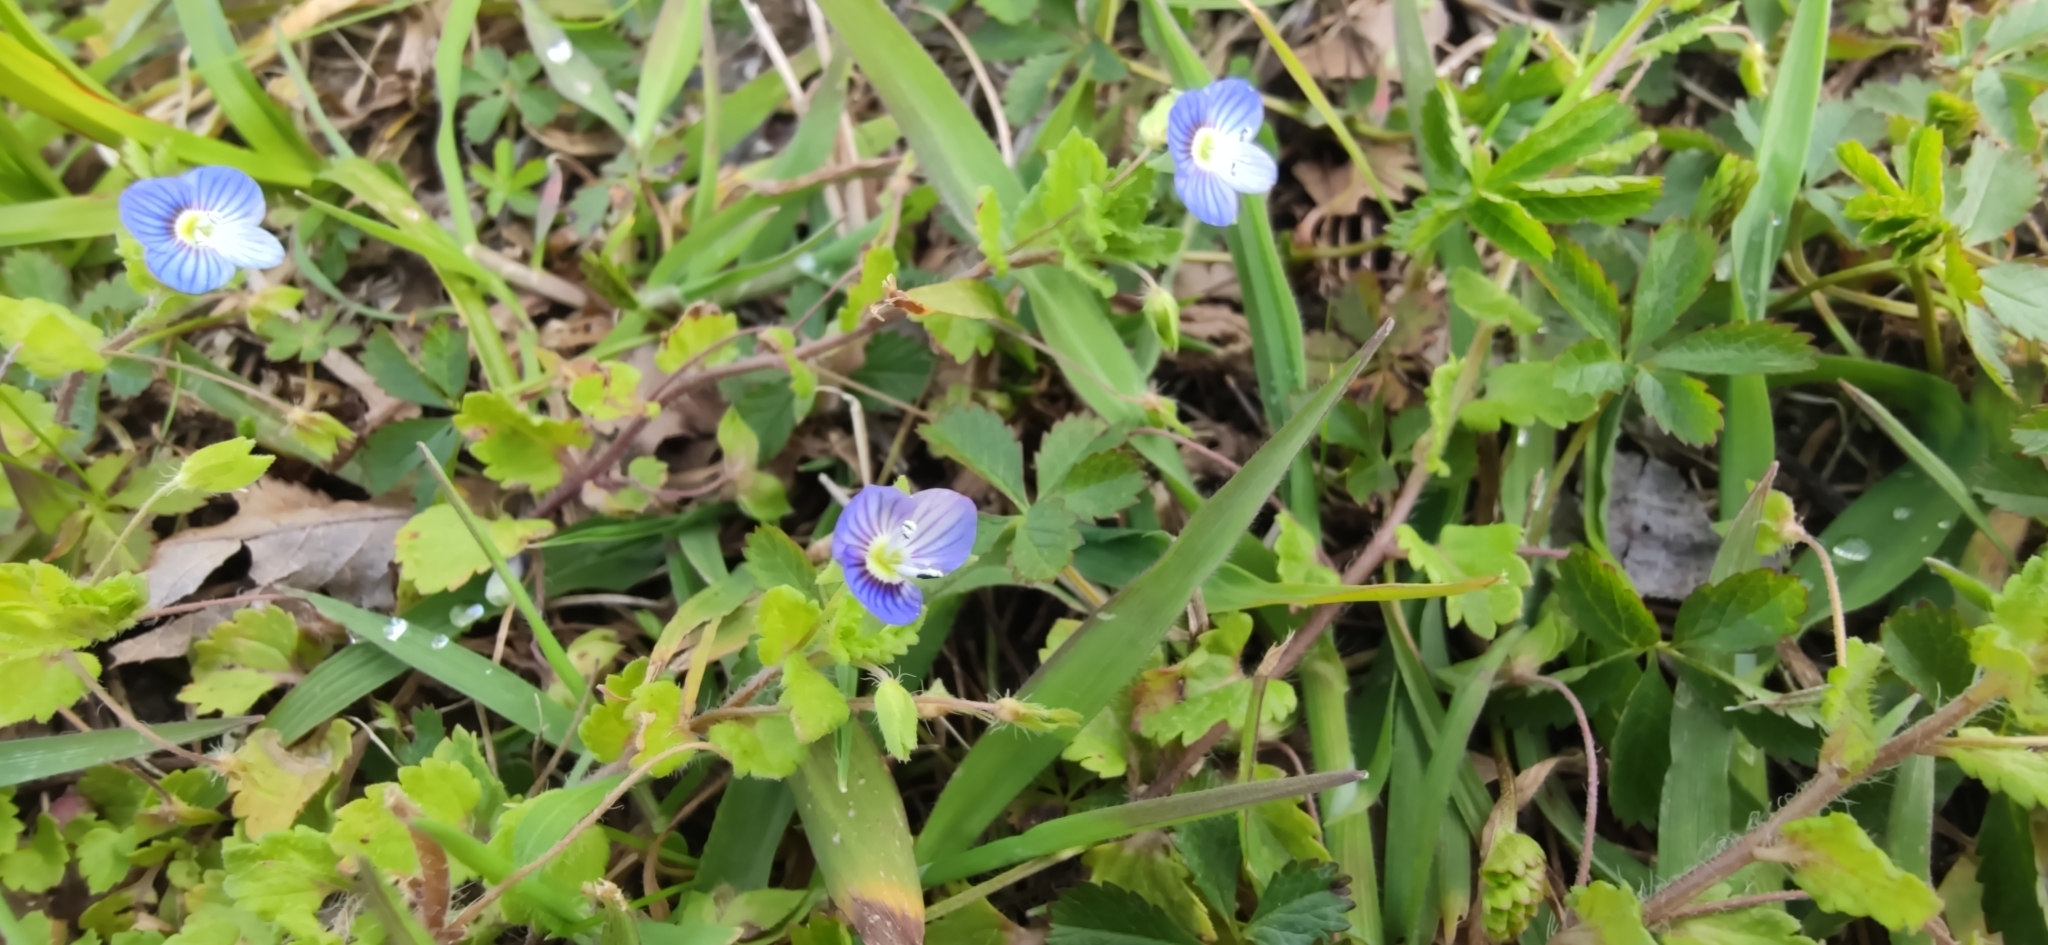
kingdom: Plantae
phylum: Tracheophyta
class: Magnoliopsida
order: Lamiales
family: Plantaginaceae
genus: Veronica
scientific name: Veronica persica
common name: Common field-speedwell
